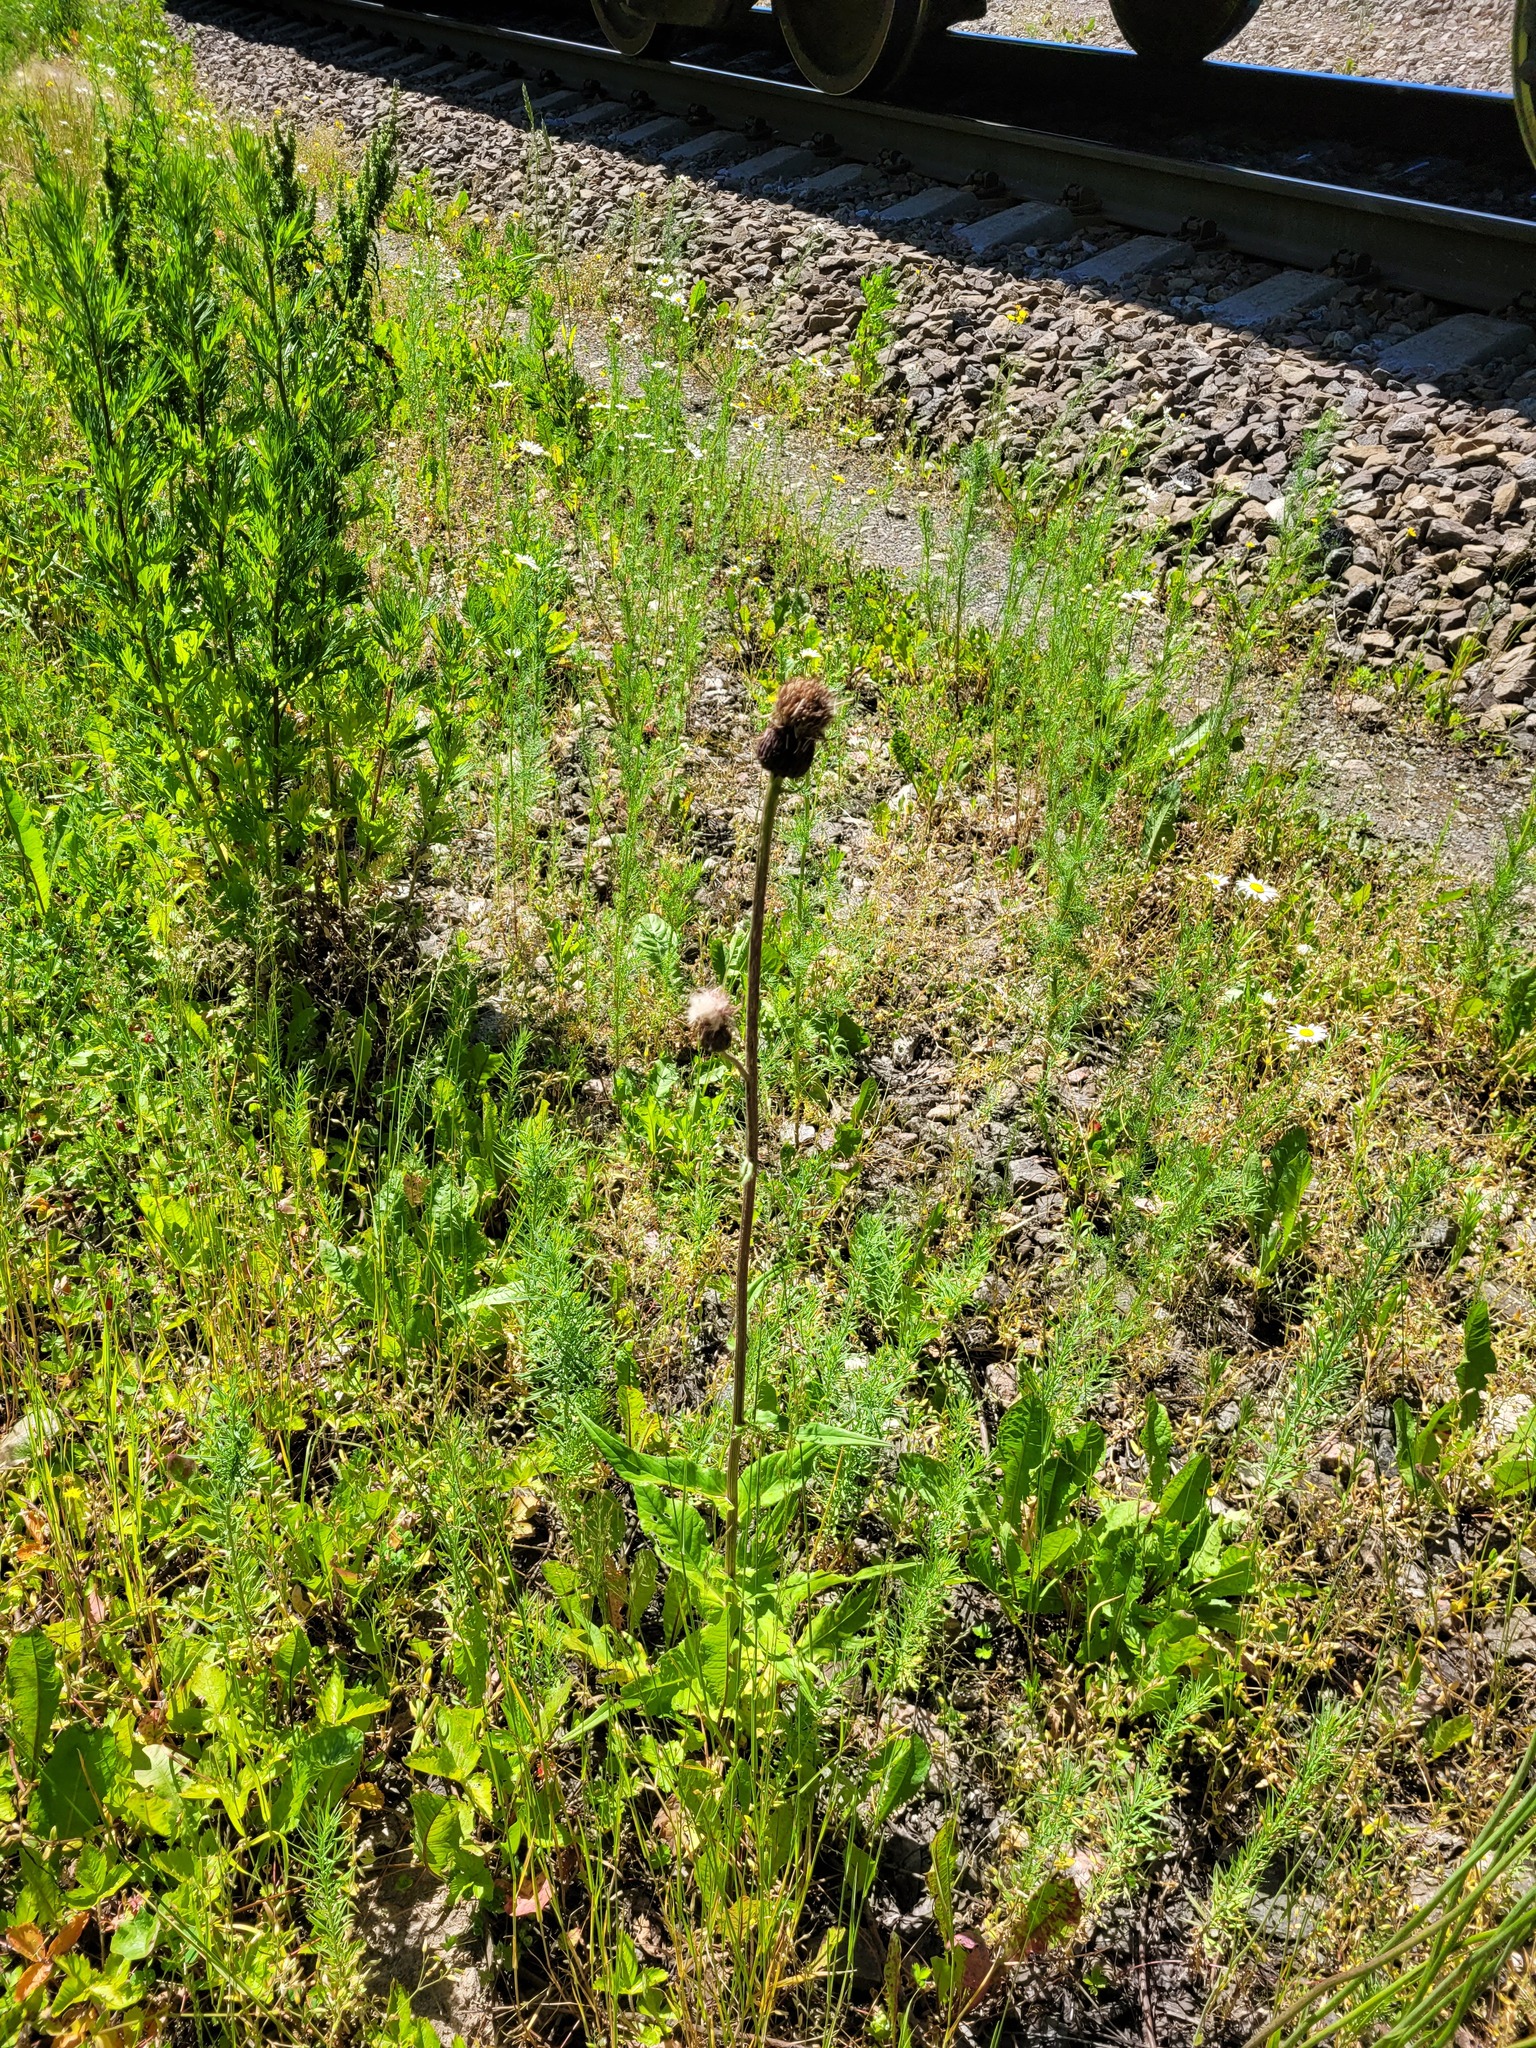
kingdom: Plantae
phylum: Tracheophyta
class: Magnoliopsida
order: Asterales
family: Asteraceae
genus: Cirsium
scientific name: Cirsium heterophyllum
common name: Melancholy thistle
